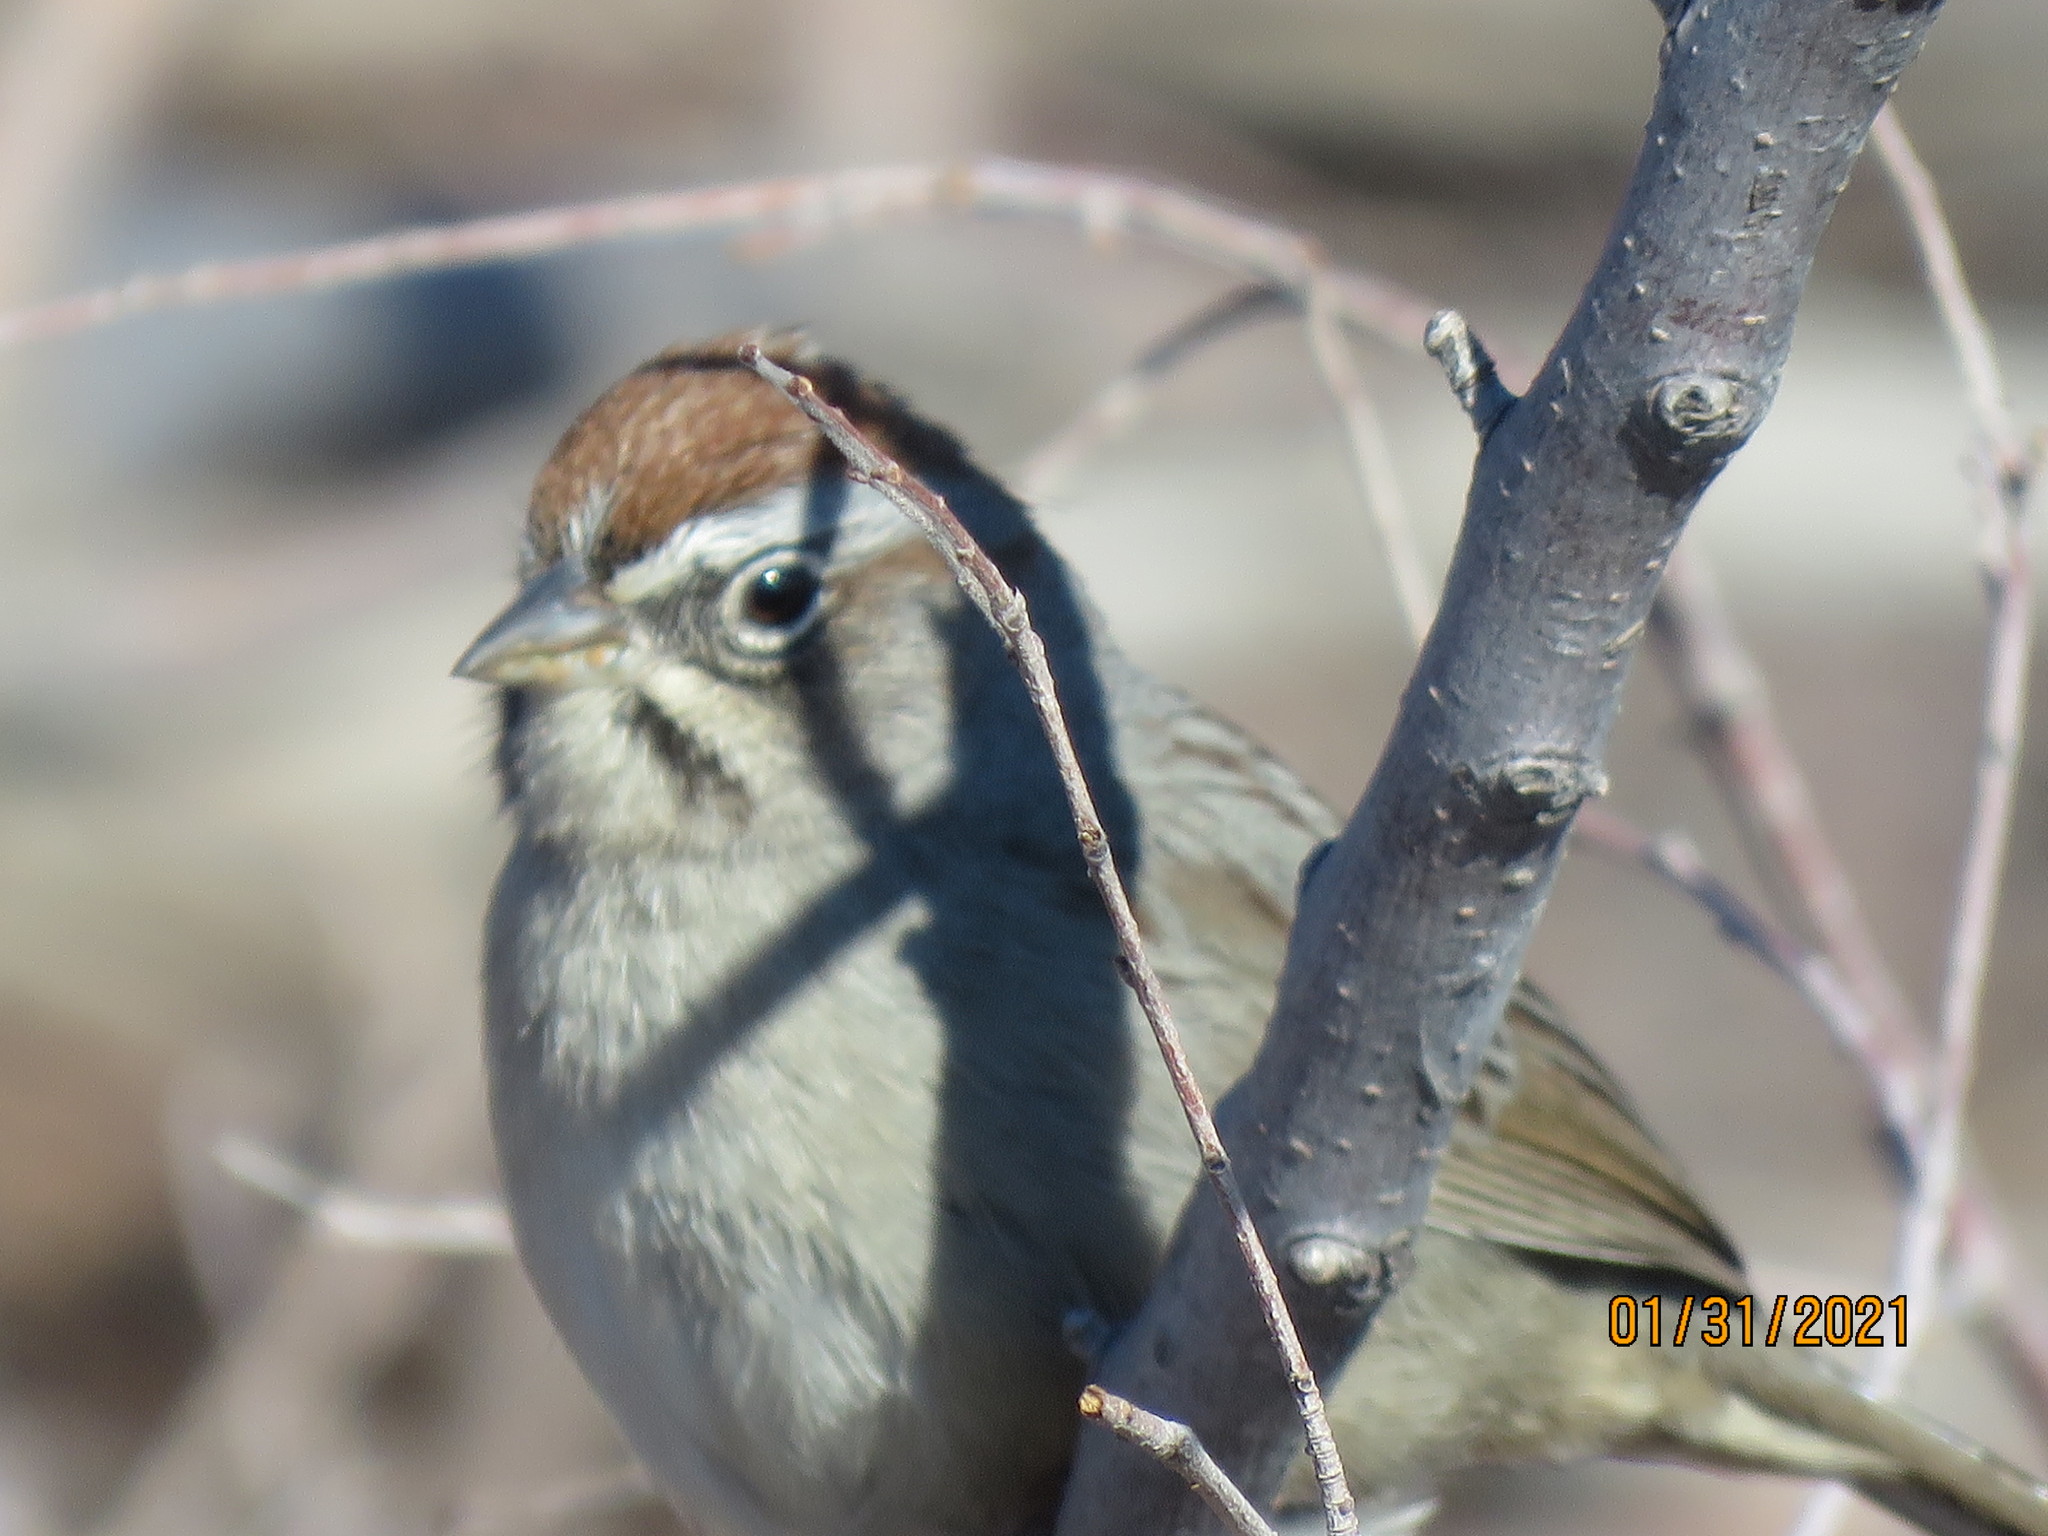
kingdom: Animalia
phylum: Chordata
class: Aves
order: Passeriformes
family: Passerellidae
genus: Aimophila
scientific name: Aimophila ruficeps
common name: Rufous-crowned sparrow
